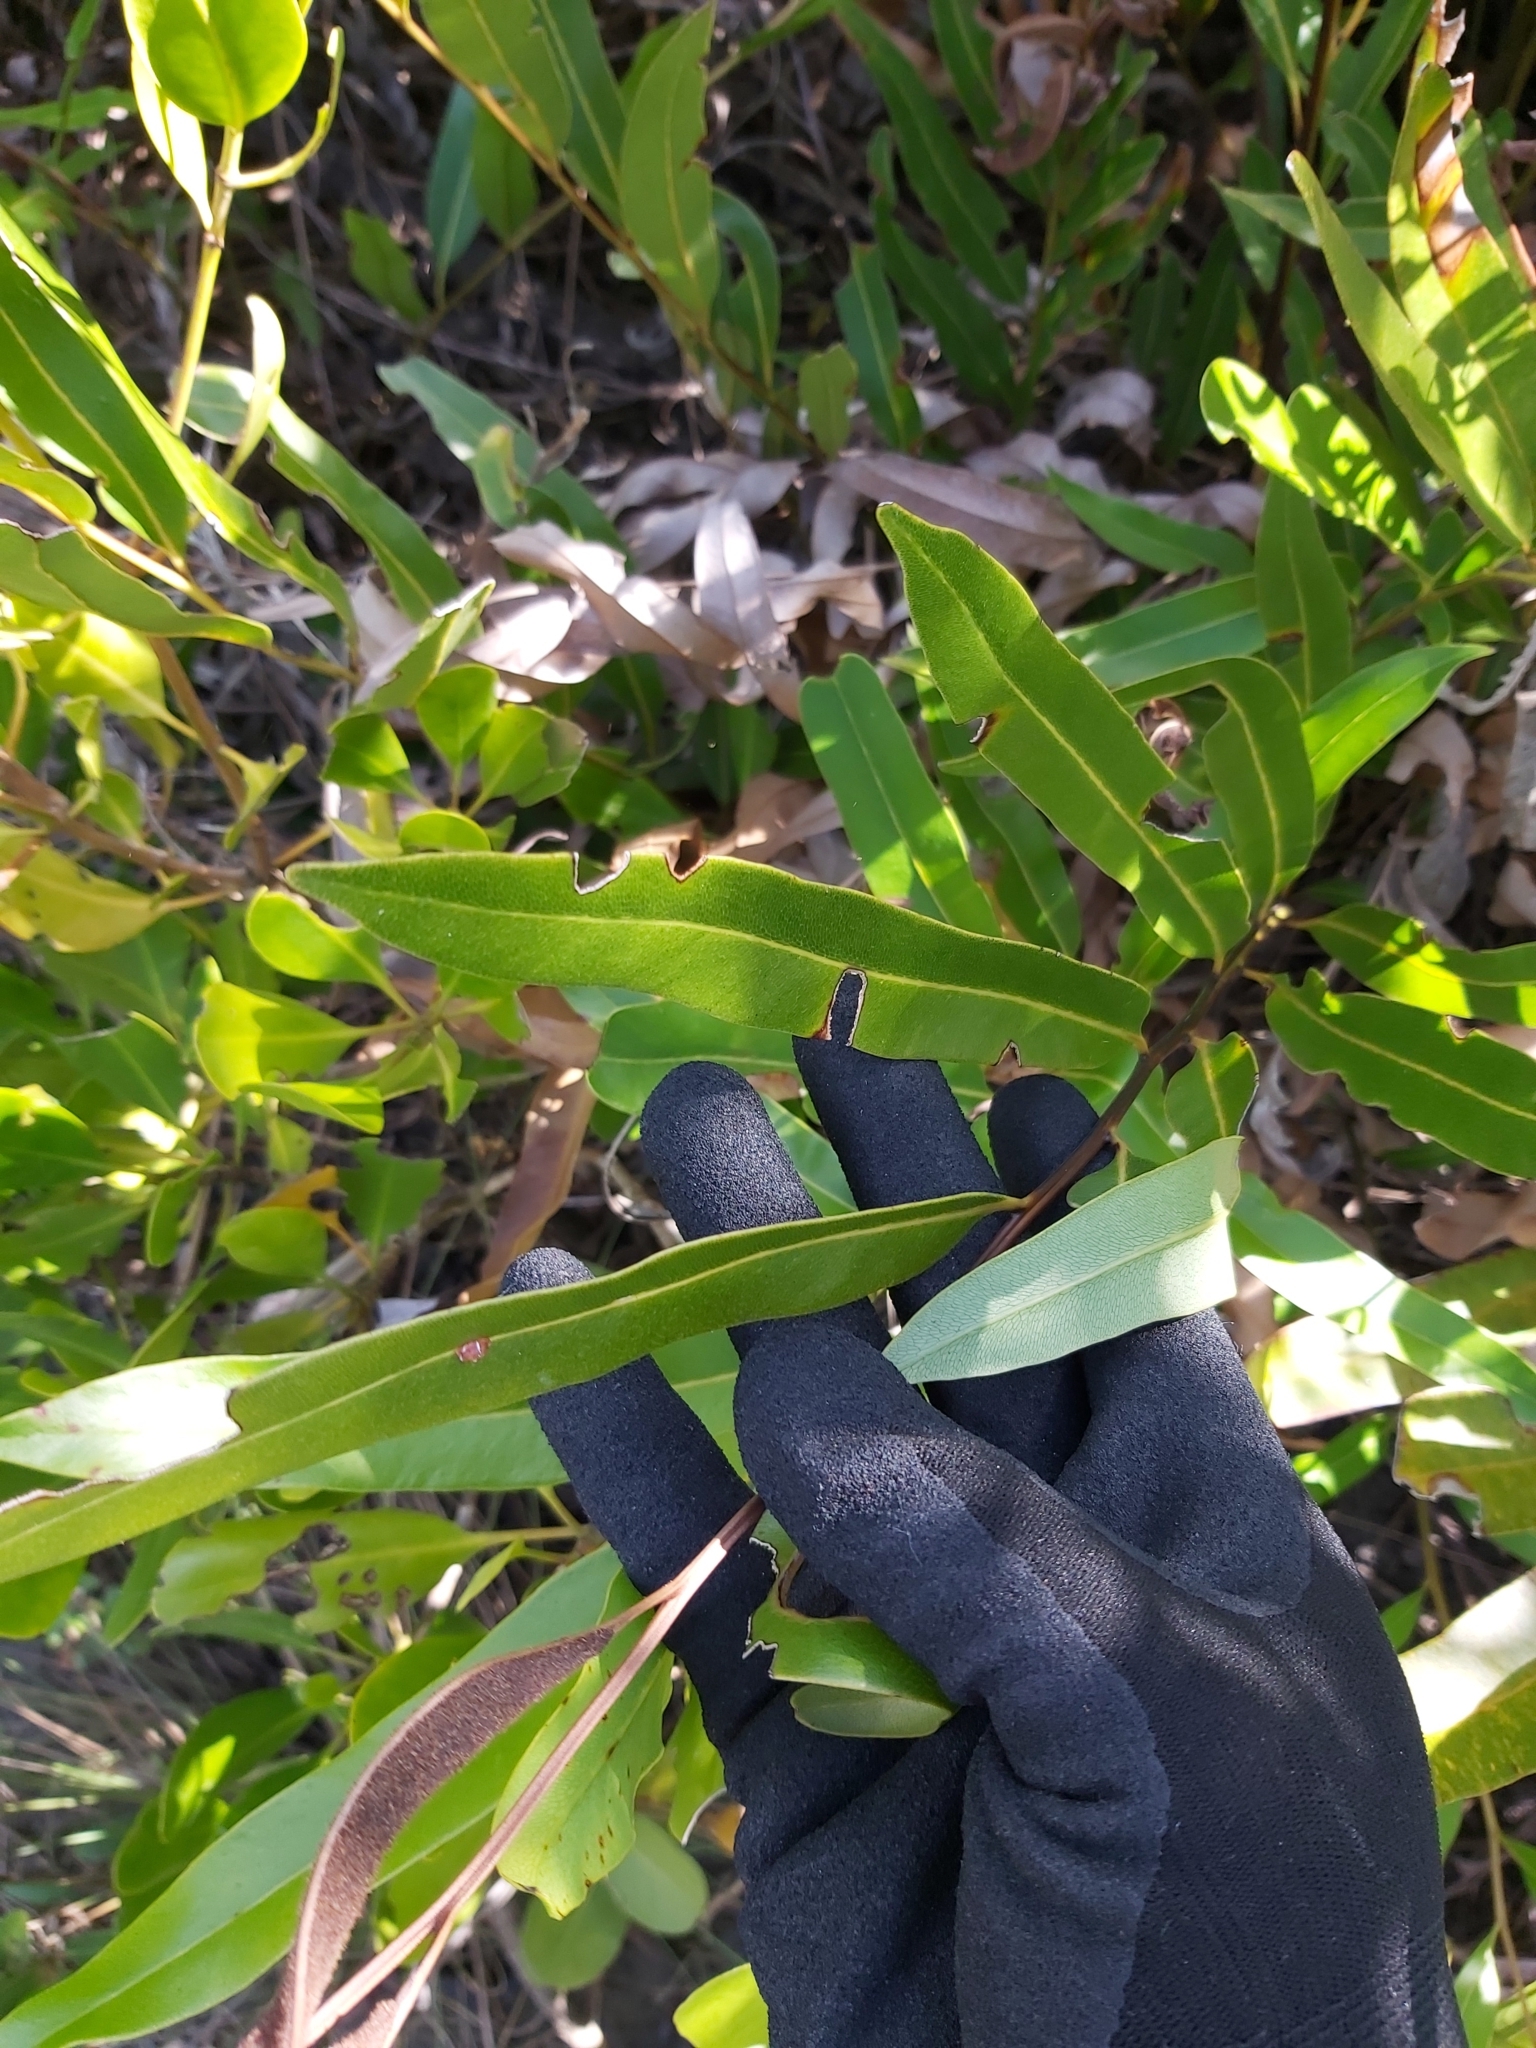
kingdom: Plantae
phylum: Tracheophyta
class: Polypodiopsida
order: Polypodiales
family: Pteridaceae
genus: Acrostichum
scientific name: Acrostichum speciosum
